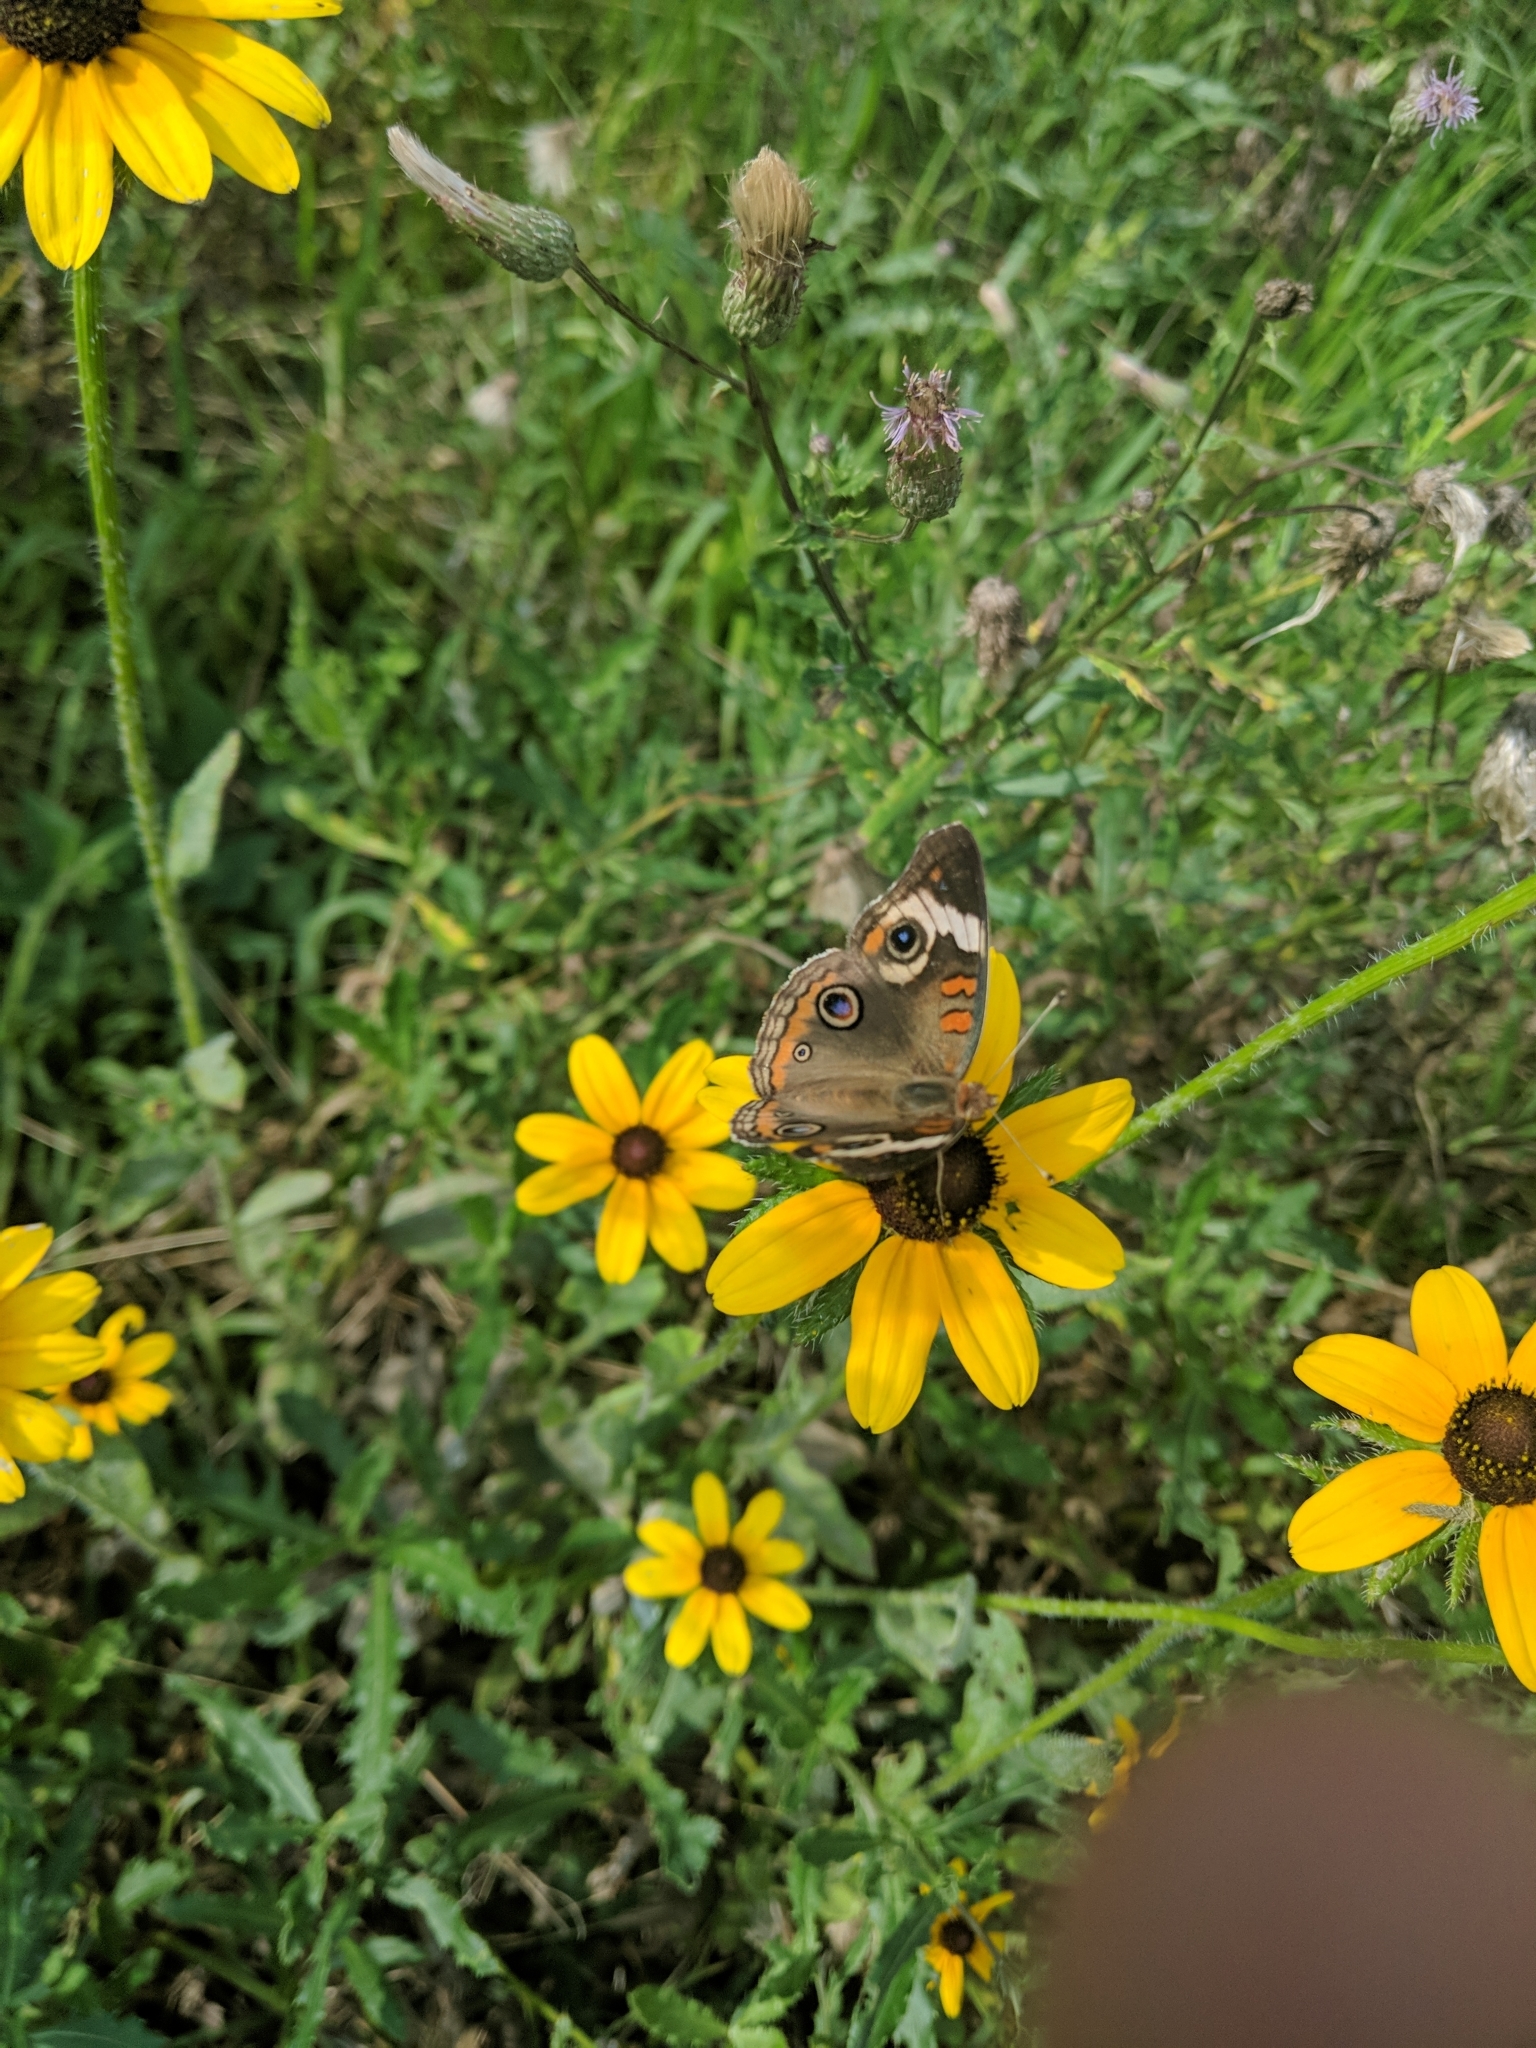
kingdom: Animalia
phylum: Arthropoda
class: Insecta
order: Lepidoptera
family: Nymphalidae
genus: Junonia
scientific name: Junonia coenia
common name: Common buckeye
